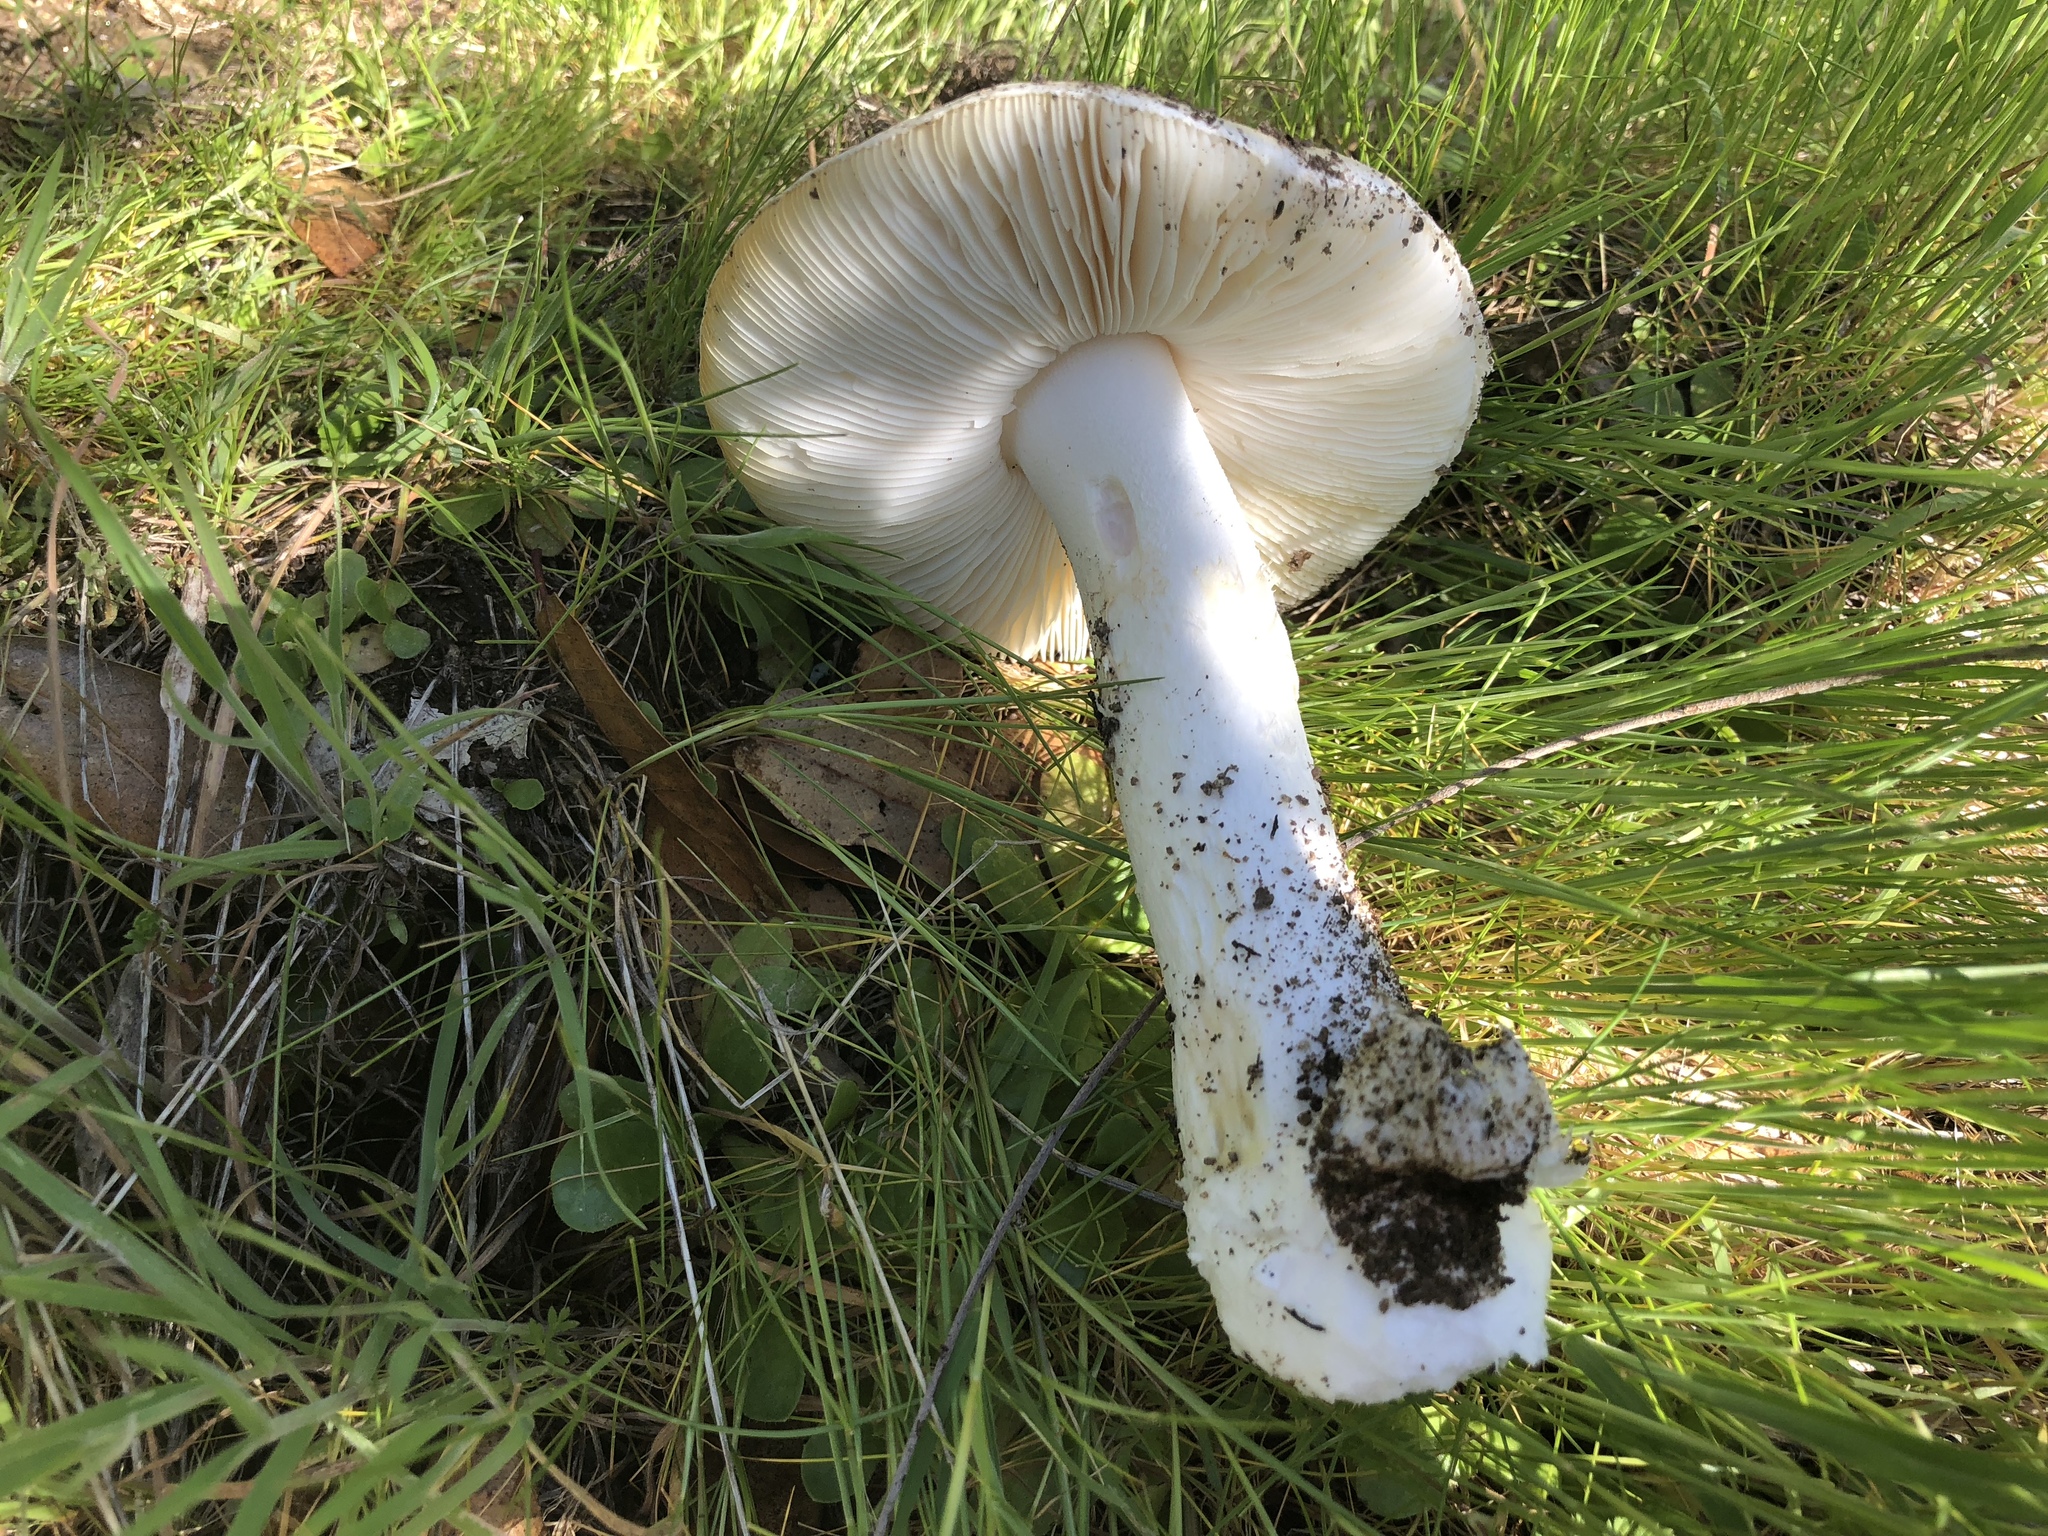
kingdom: Fungi
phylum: Basidiomycota
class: Agaricomycetes
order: Agaricales
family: Amanitaceae
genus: Amanita
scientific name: Amanita ocreata
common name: Western destroying angel
